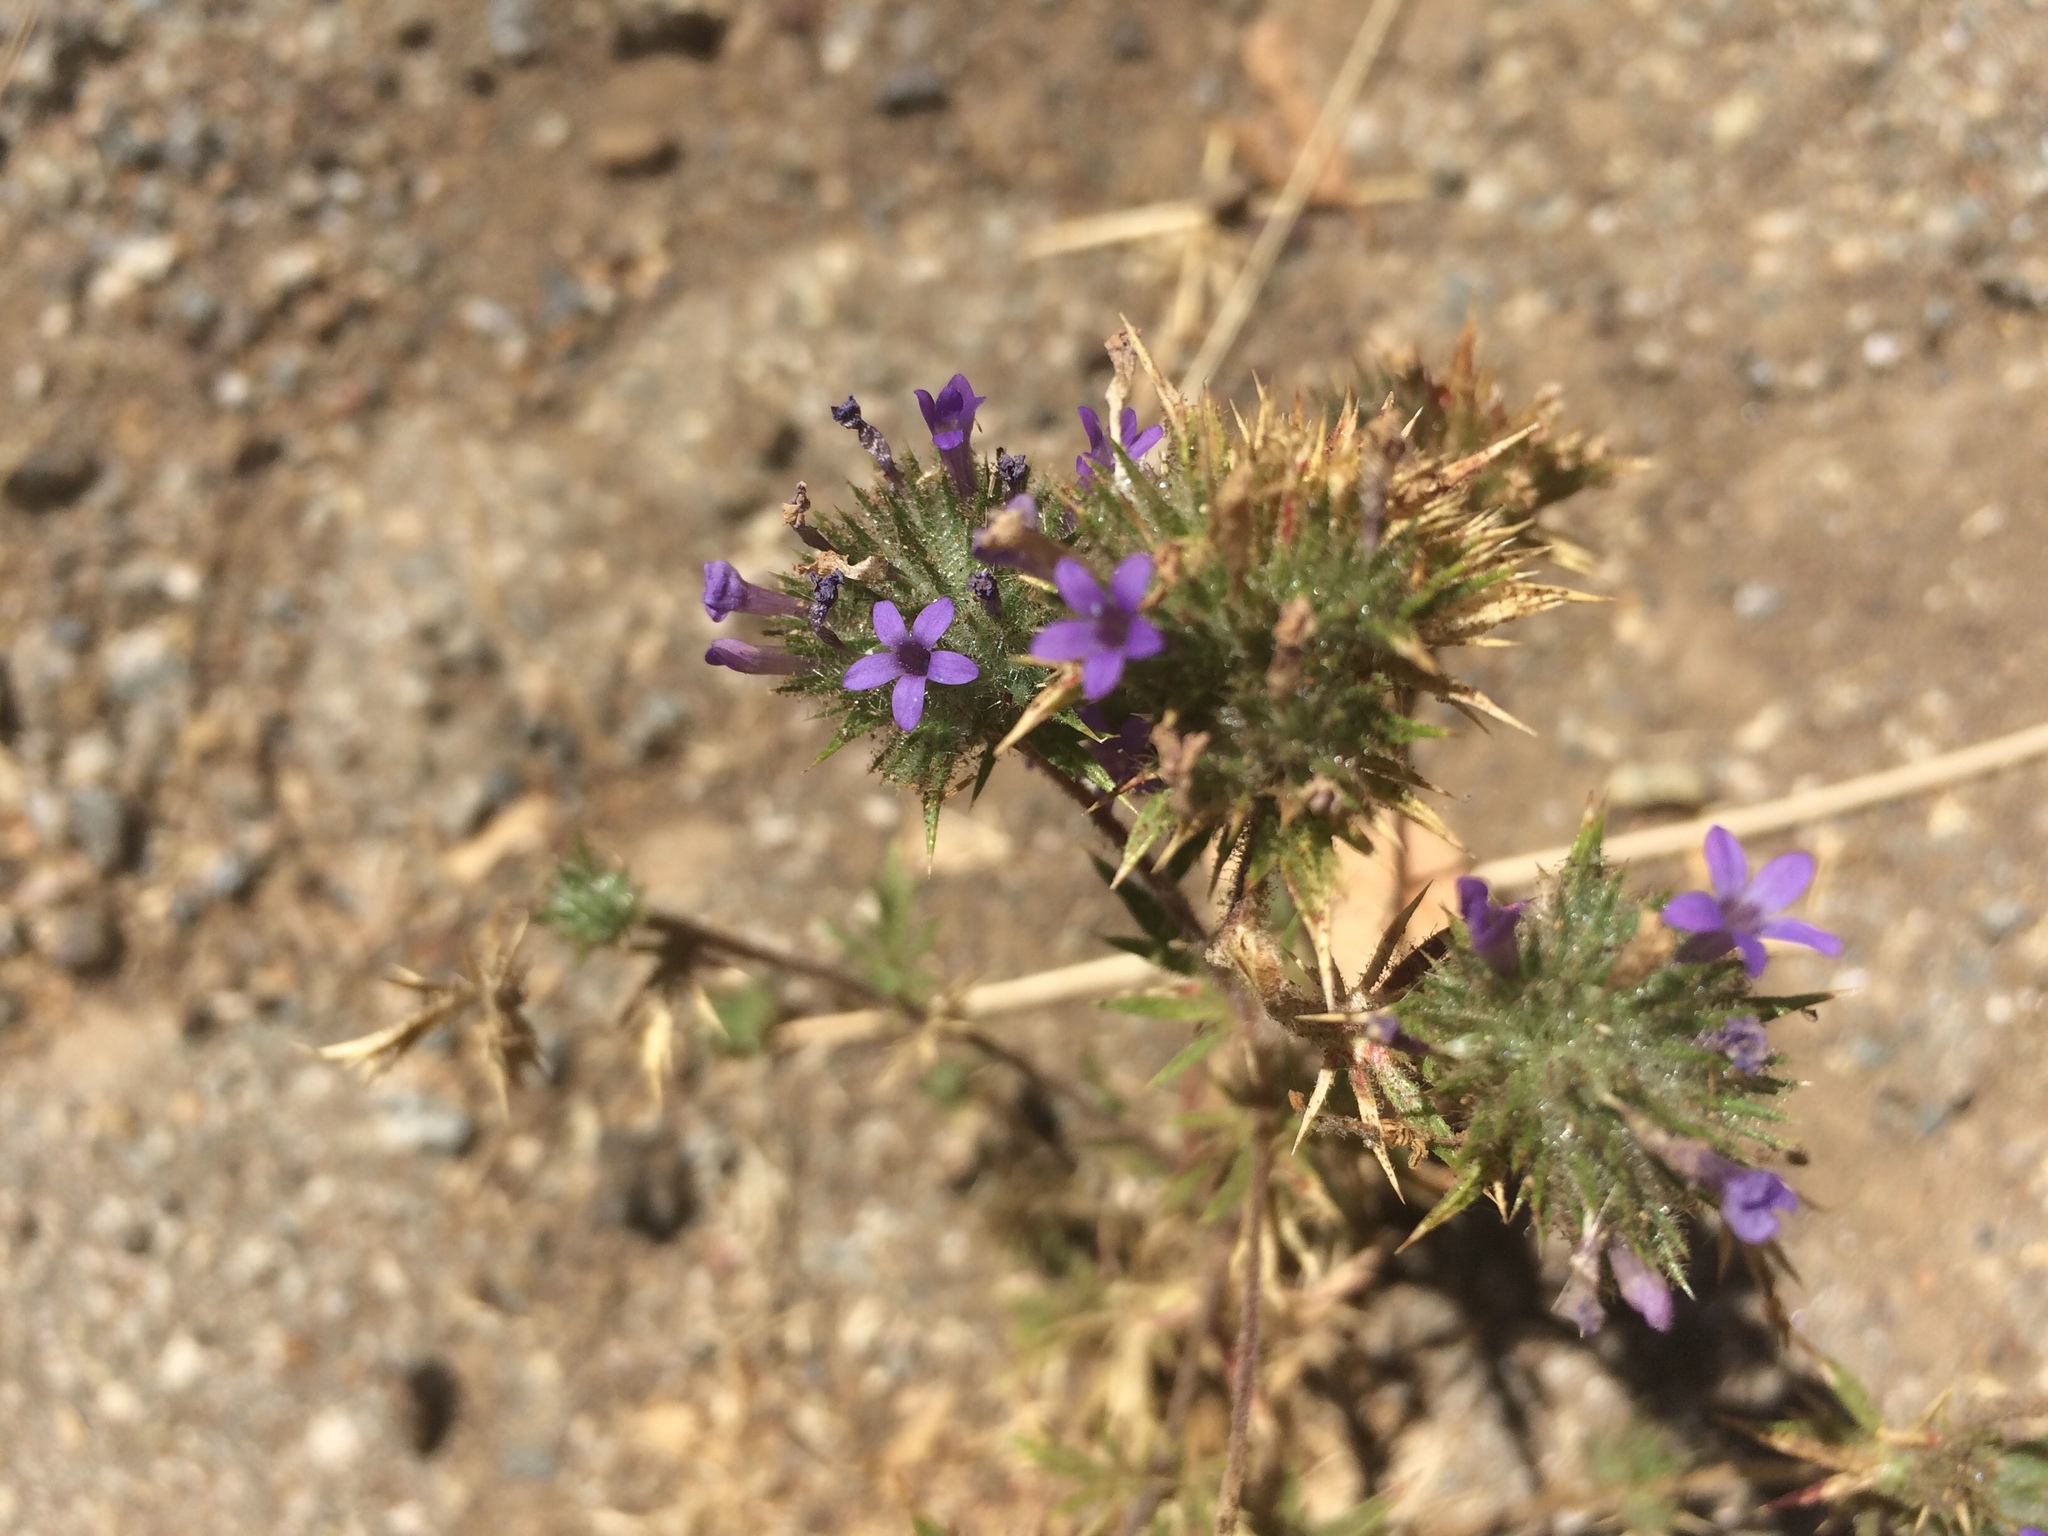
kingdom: Plantae
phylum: Tracheophyta
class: Magnoliopsida
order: Ericales
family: Polemoniaceae
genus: Navarretia
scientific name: Navarretia squarrosa
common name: Skunkweed
